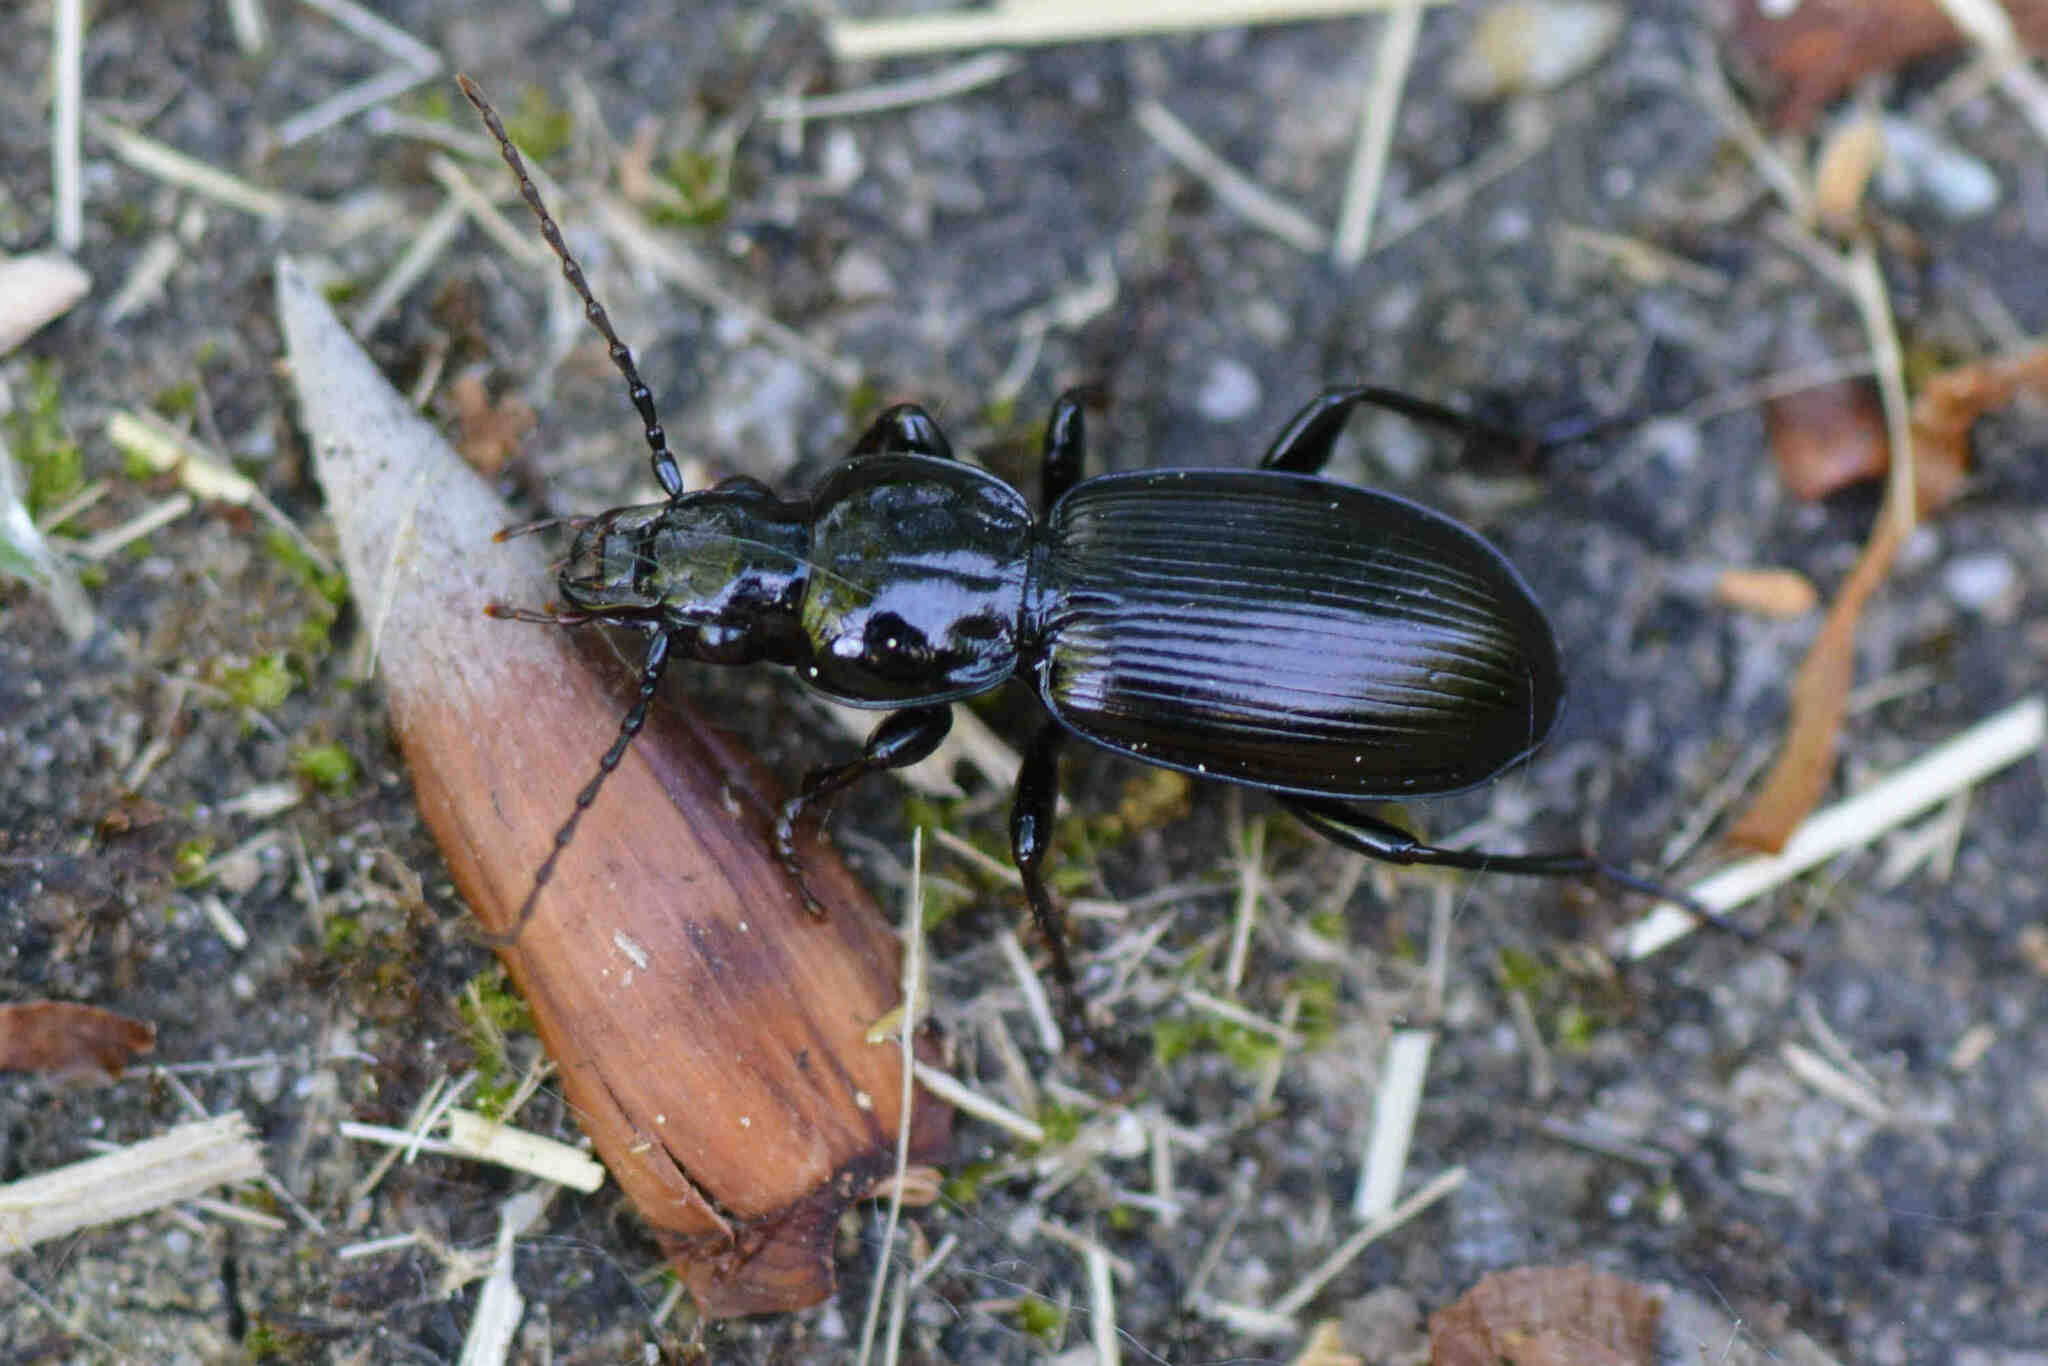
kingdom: Animalia
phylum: Arthropoda
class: Insecta
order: Coleoptera
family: Carabidae
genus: Pterostichus
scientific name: Pterostichus madidus
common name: Black clock
